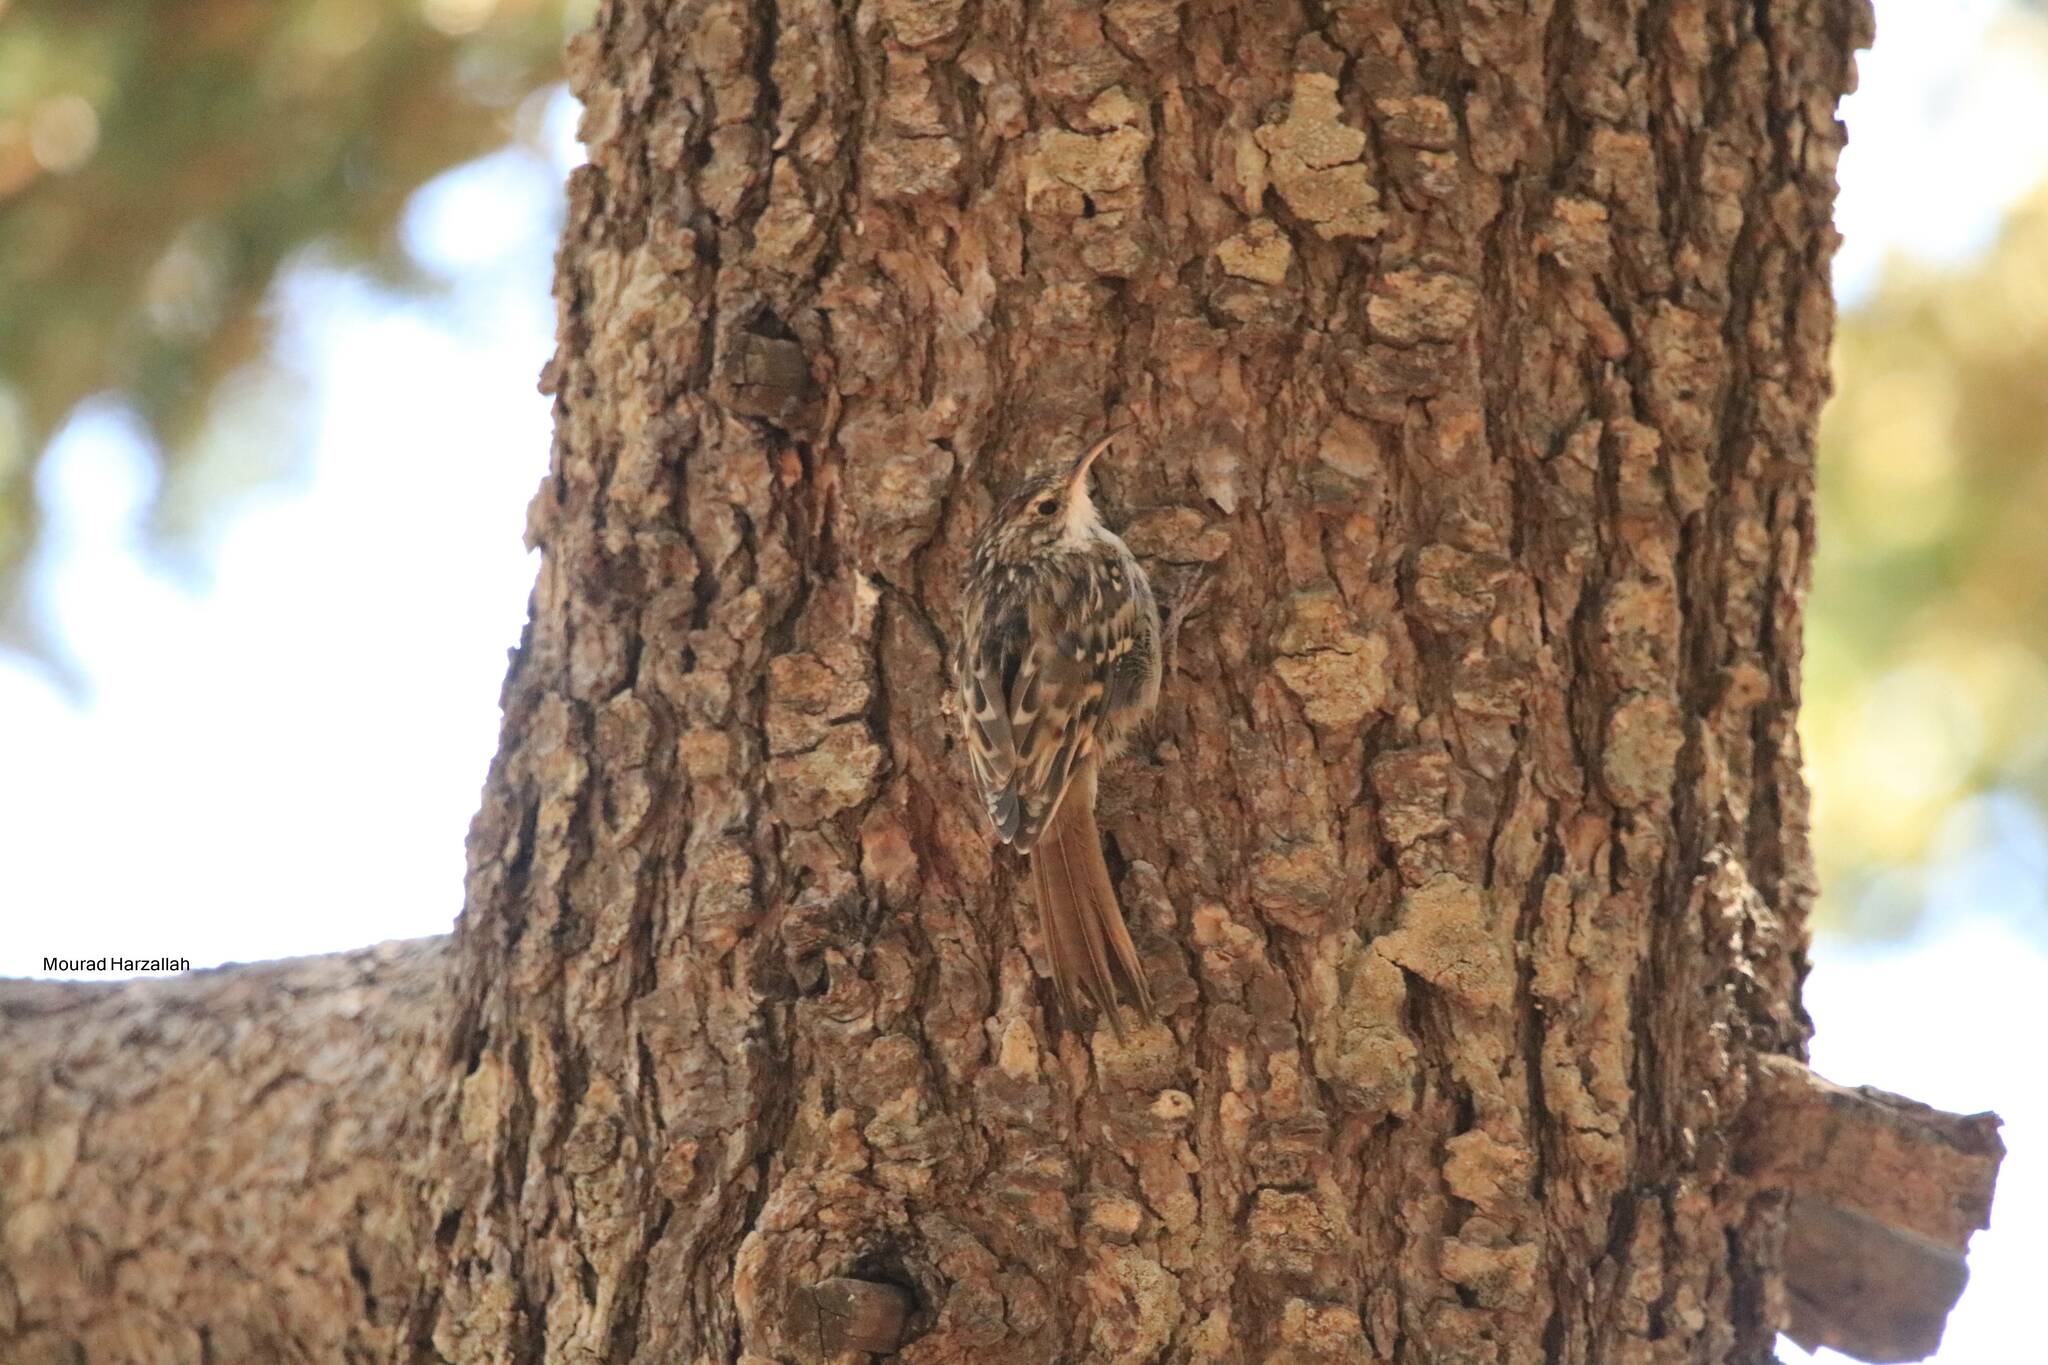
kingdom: Animalia
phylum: Chordata
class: Aves
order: Passeriformes
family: Certhiidae
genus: Certhia
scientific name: Certhia brachydactyla
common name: Short-toed treecreeper
